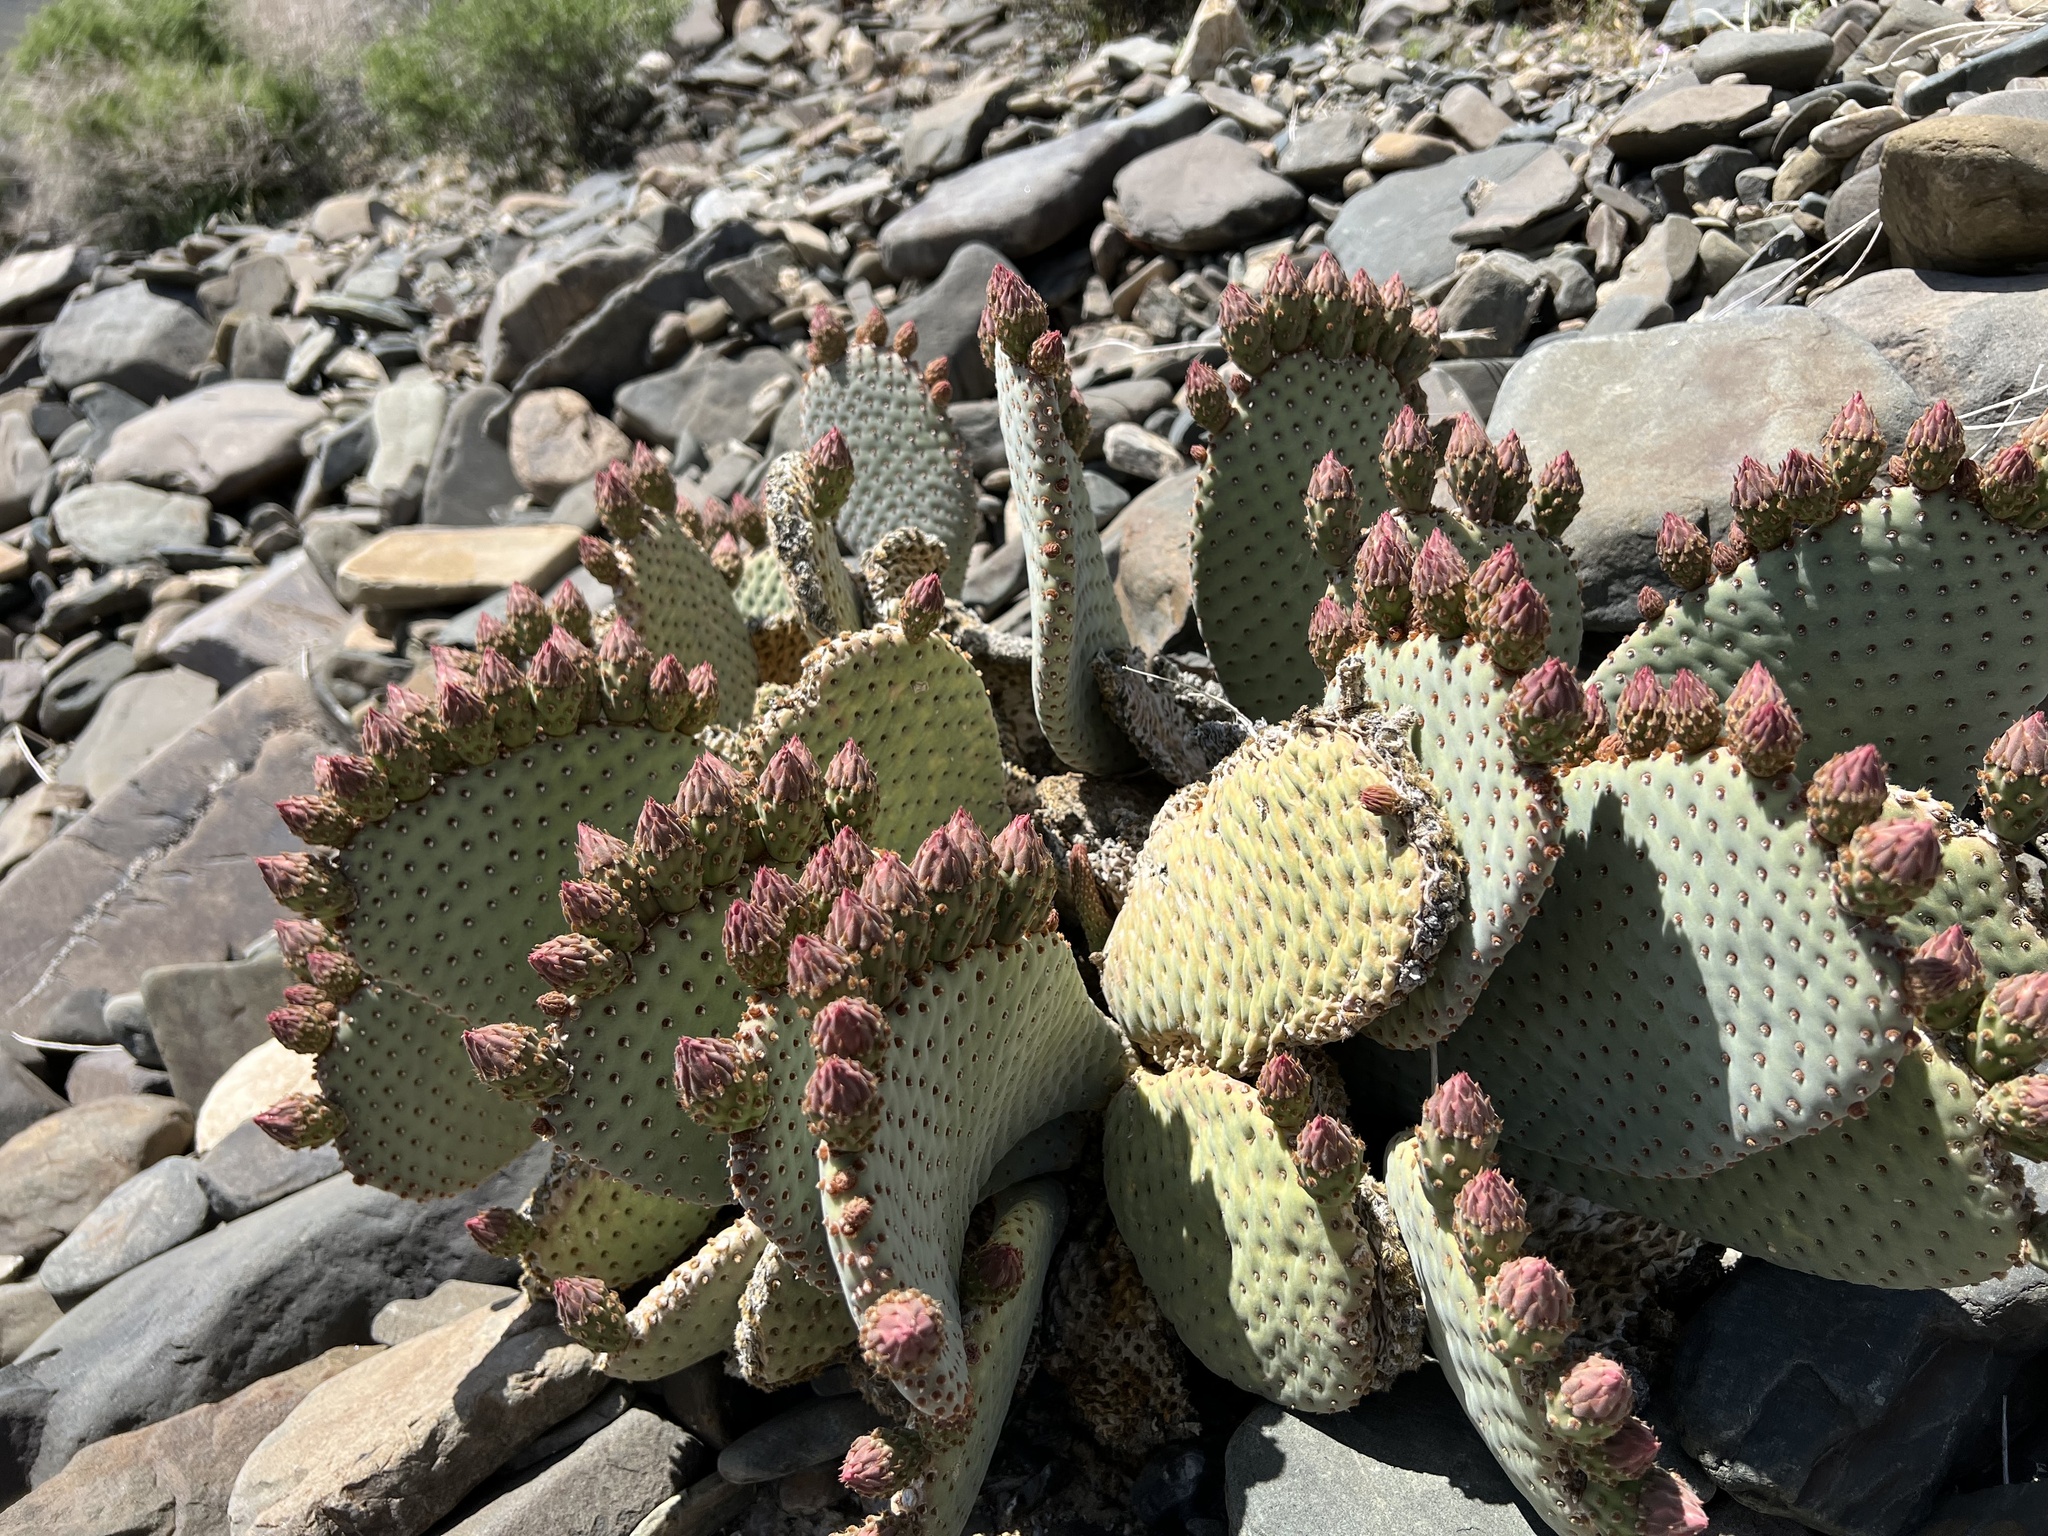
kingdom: Plantae
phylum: Tracheophyta
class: Magnoliopsida
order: Caryophyllales
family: Cactaceae
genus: Opuntia
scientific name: Opuntia basilaris
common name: Beavertail prickly-pear
